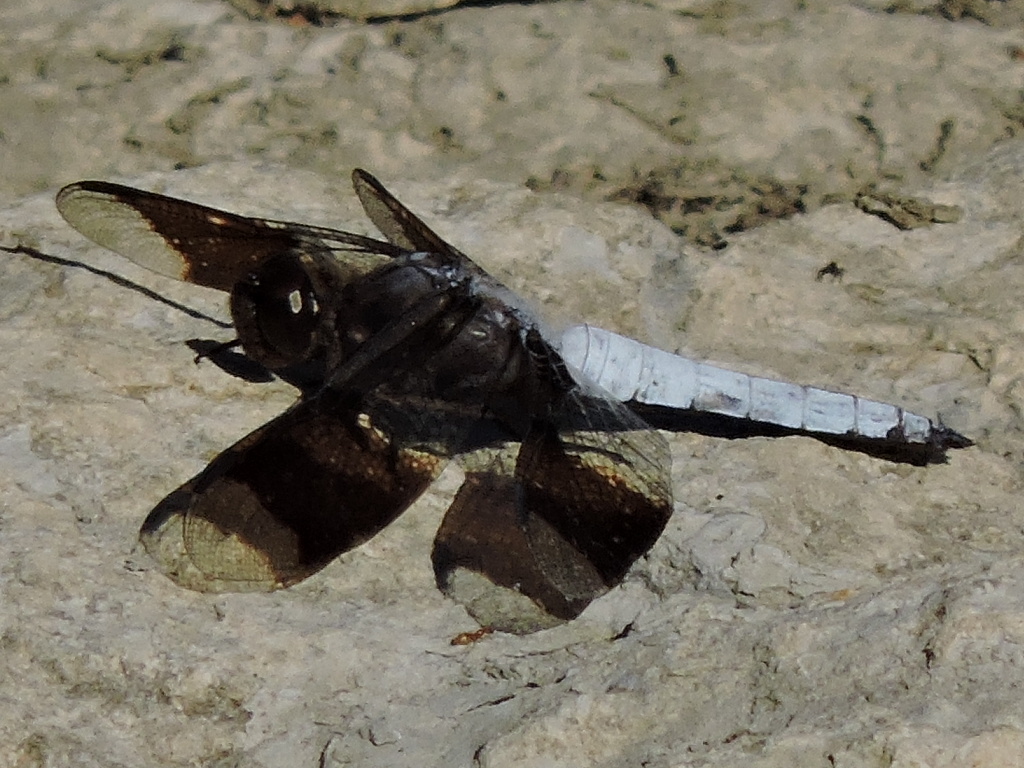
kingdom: Animalia
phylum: Arthropoda
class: Insecta
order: Odonata
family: Libellulidae
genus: Plathemis
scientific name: Plathemis lydia
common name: Common whitetail
